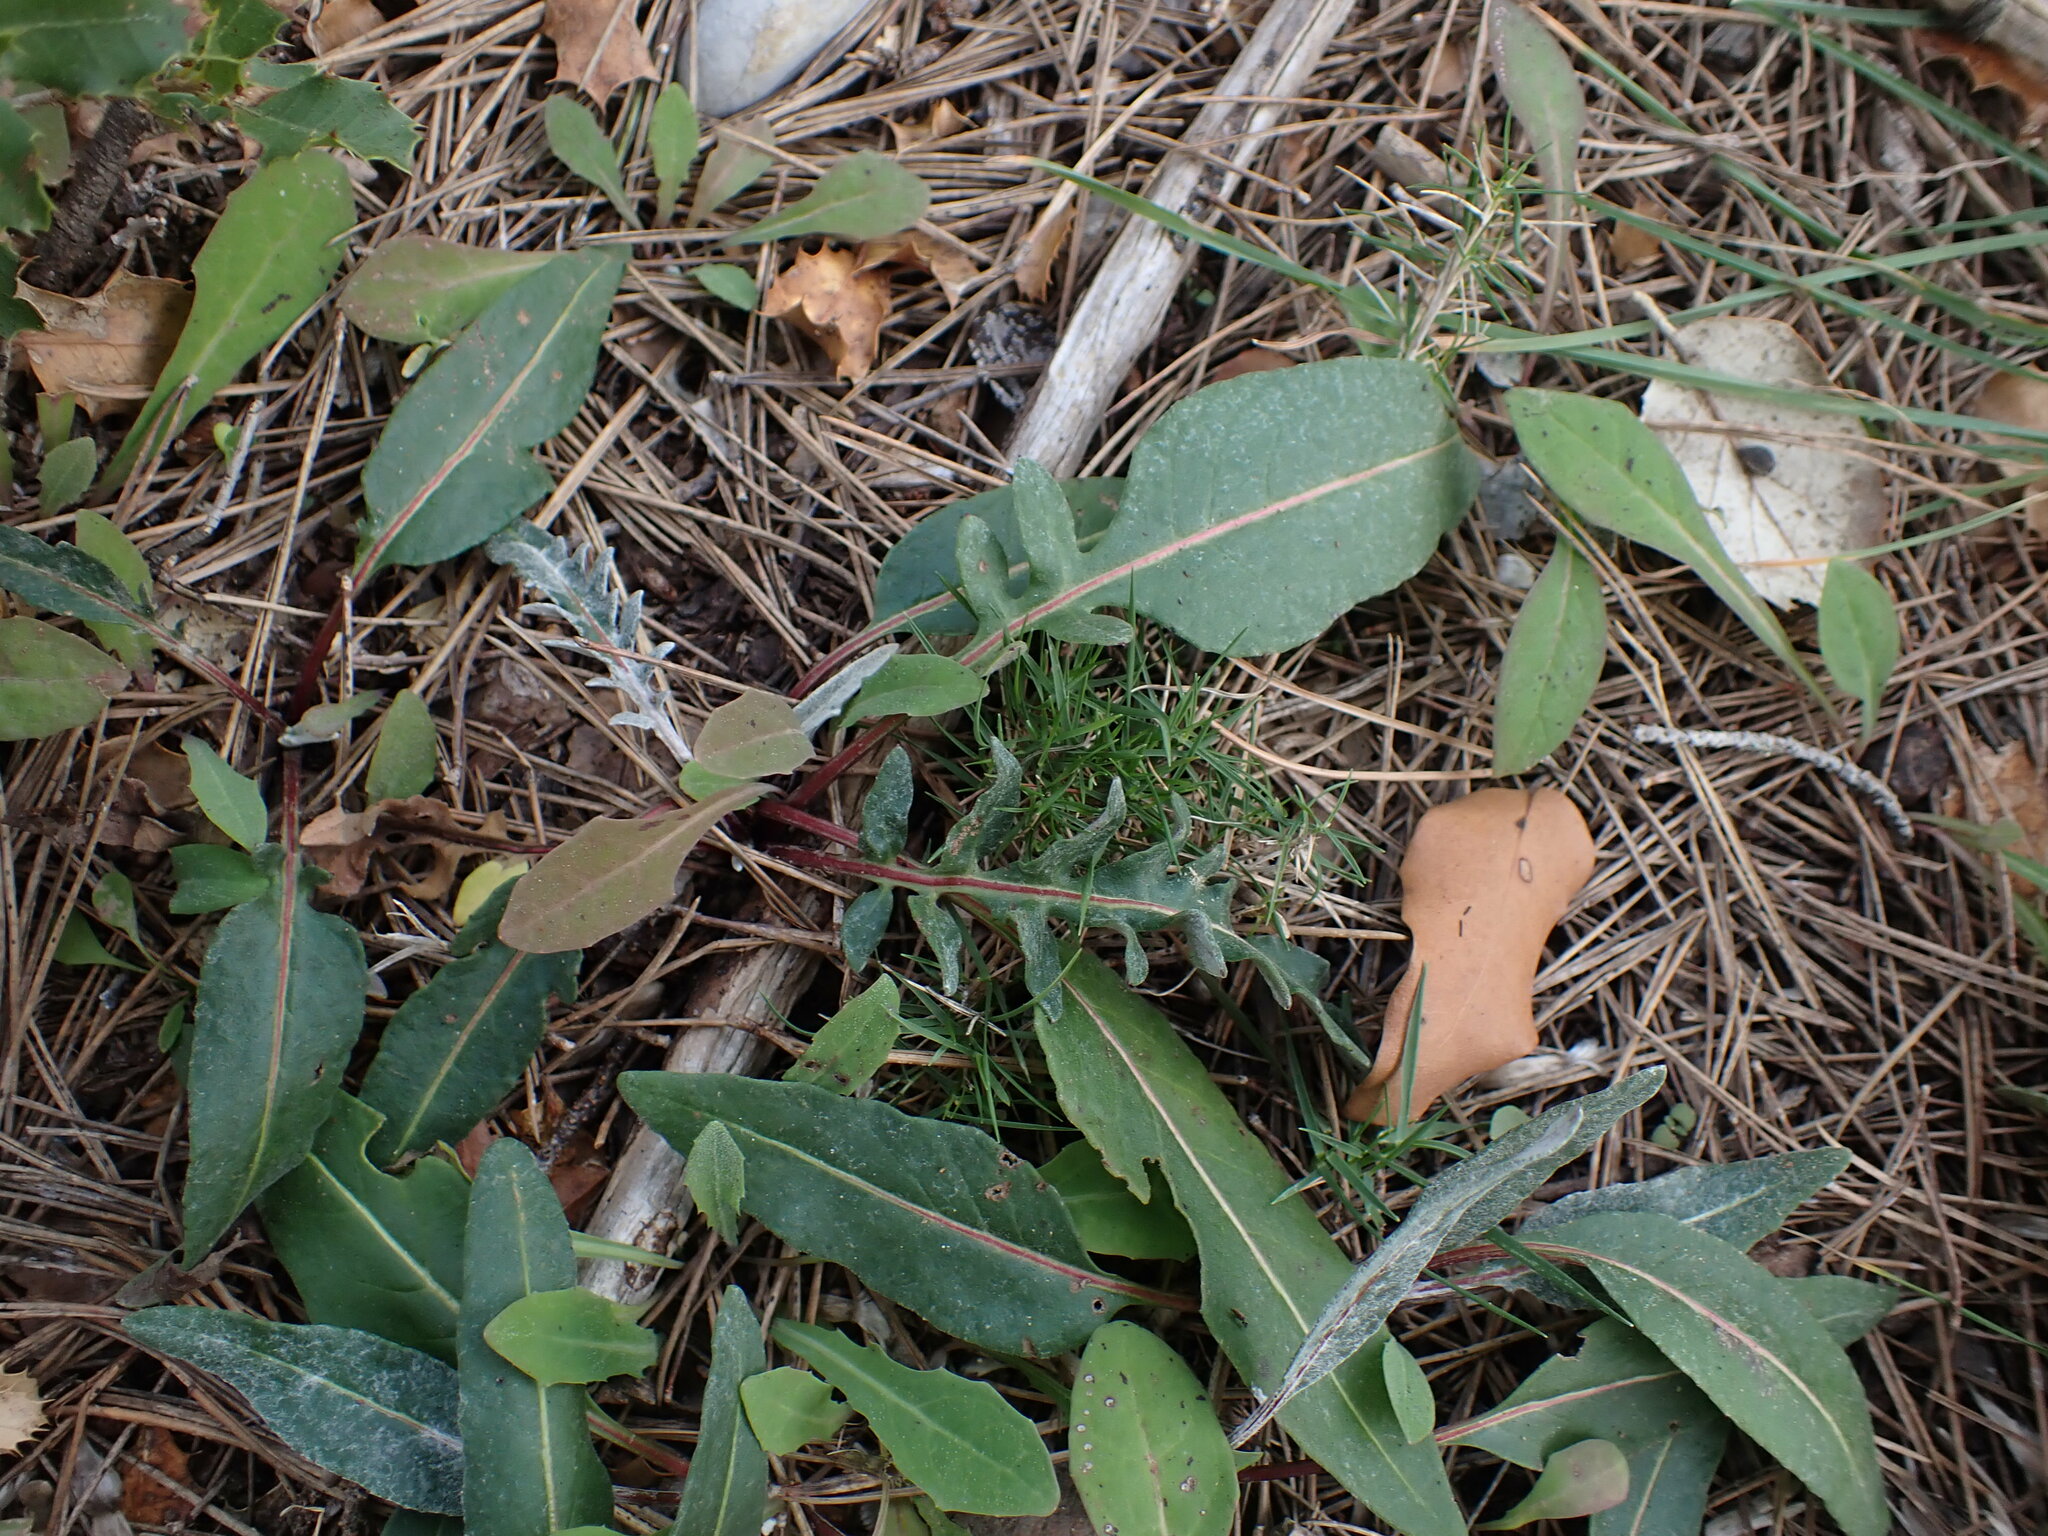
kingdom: Plantae
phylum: Tracheophyta
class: Magnoliopsida
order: Asterales
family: Asteraceae
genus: Leuzea
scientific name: Leuzea conifera
